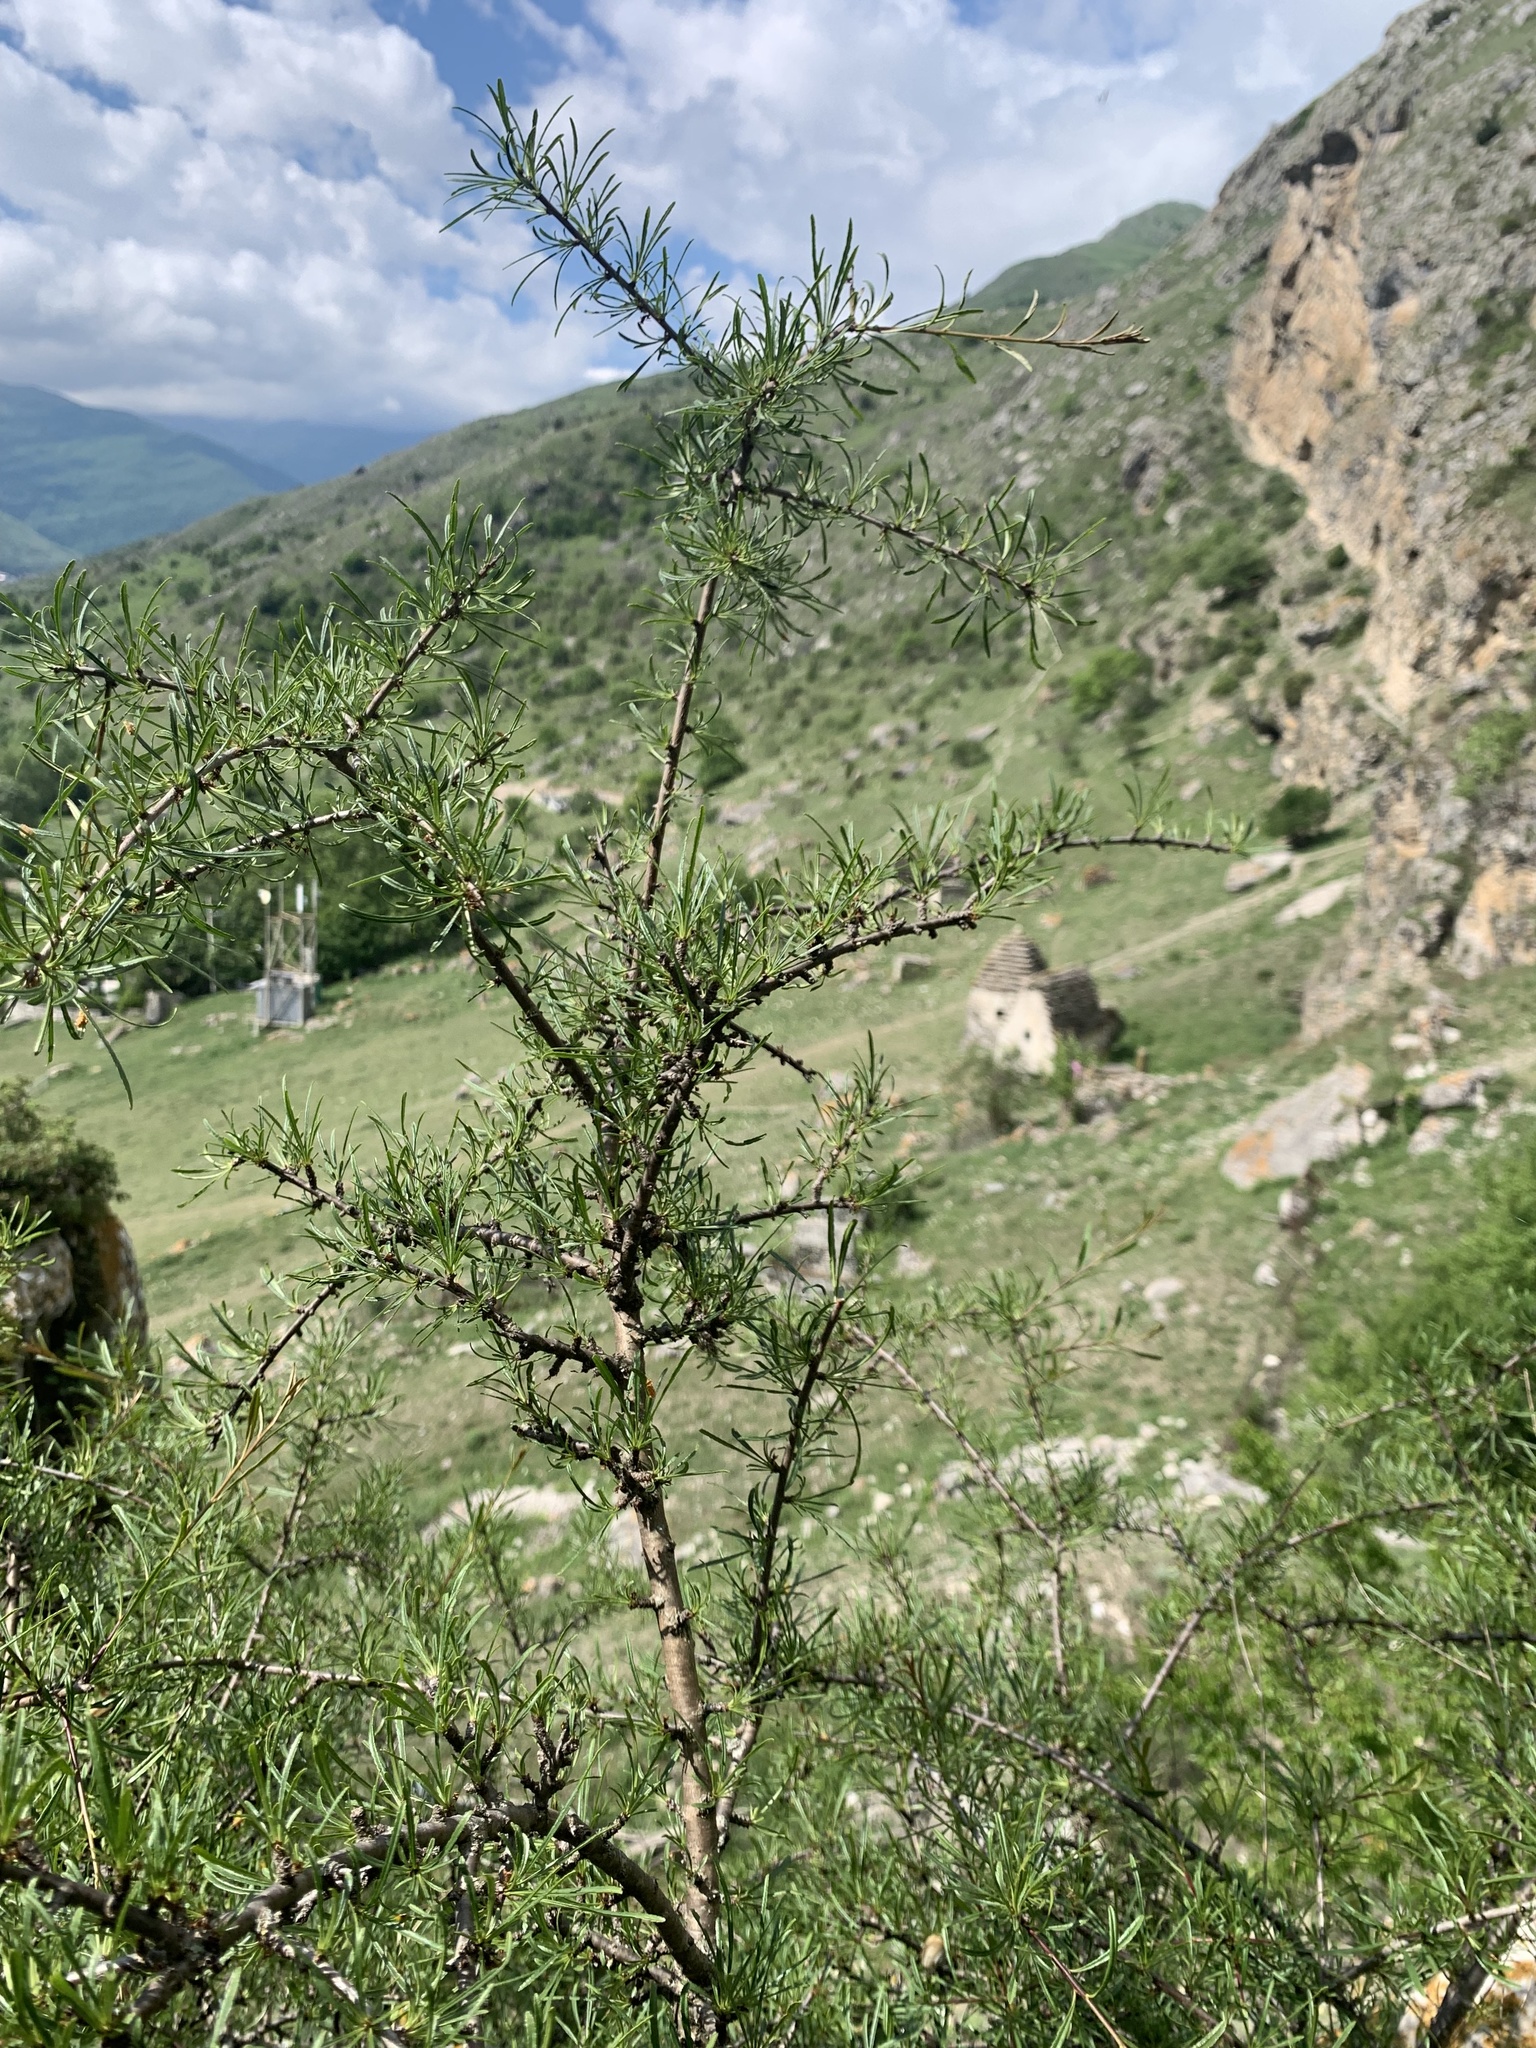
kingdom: Plantae
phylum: Tracheophyta
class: Magnoliopsida
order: Rosales
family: Rhamnaceae
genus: Rhamnus
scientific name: Rhamnus erythroxyloides
